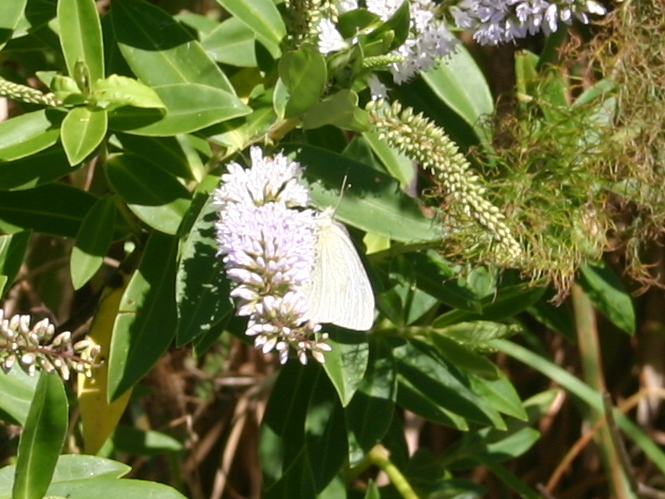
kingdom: Animalia
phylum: Arthropoda
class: Insecta
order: Lepidoptera
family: Pieridae
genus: Pieris
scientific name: Pieris rapae
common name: Small white
